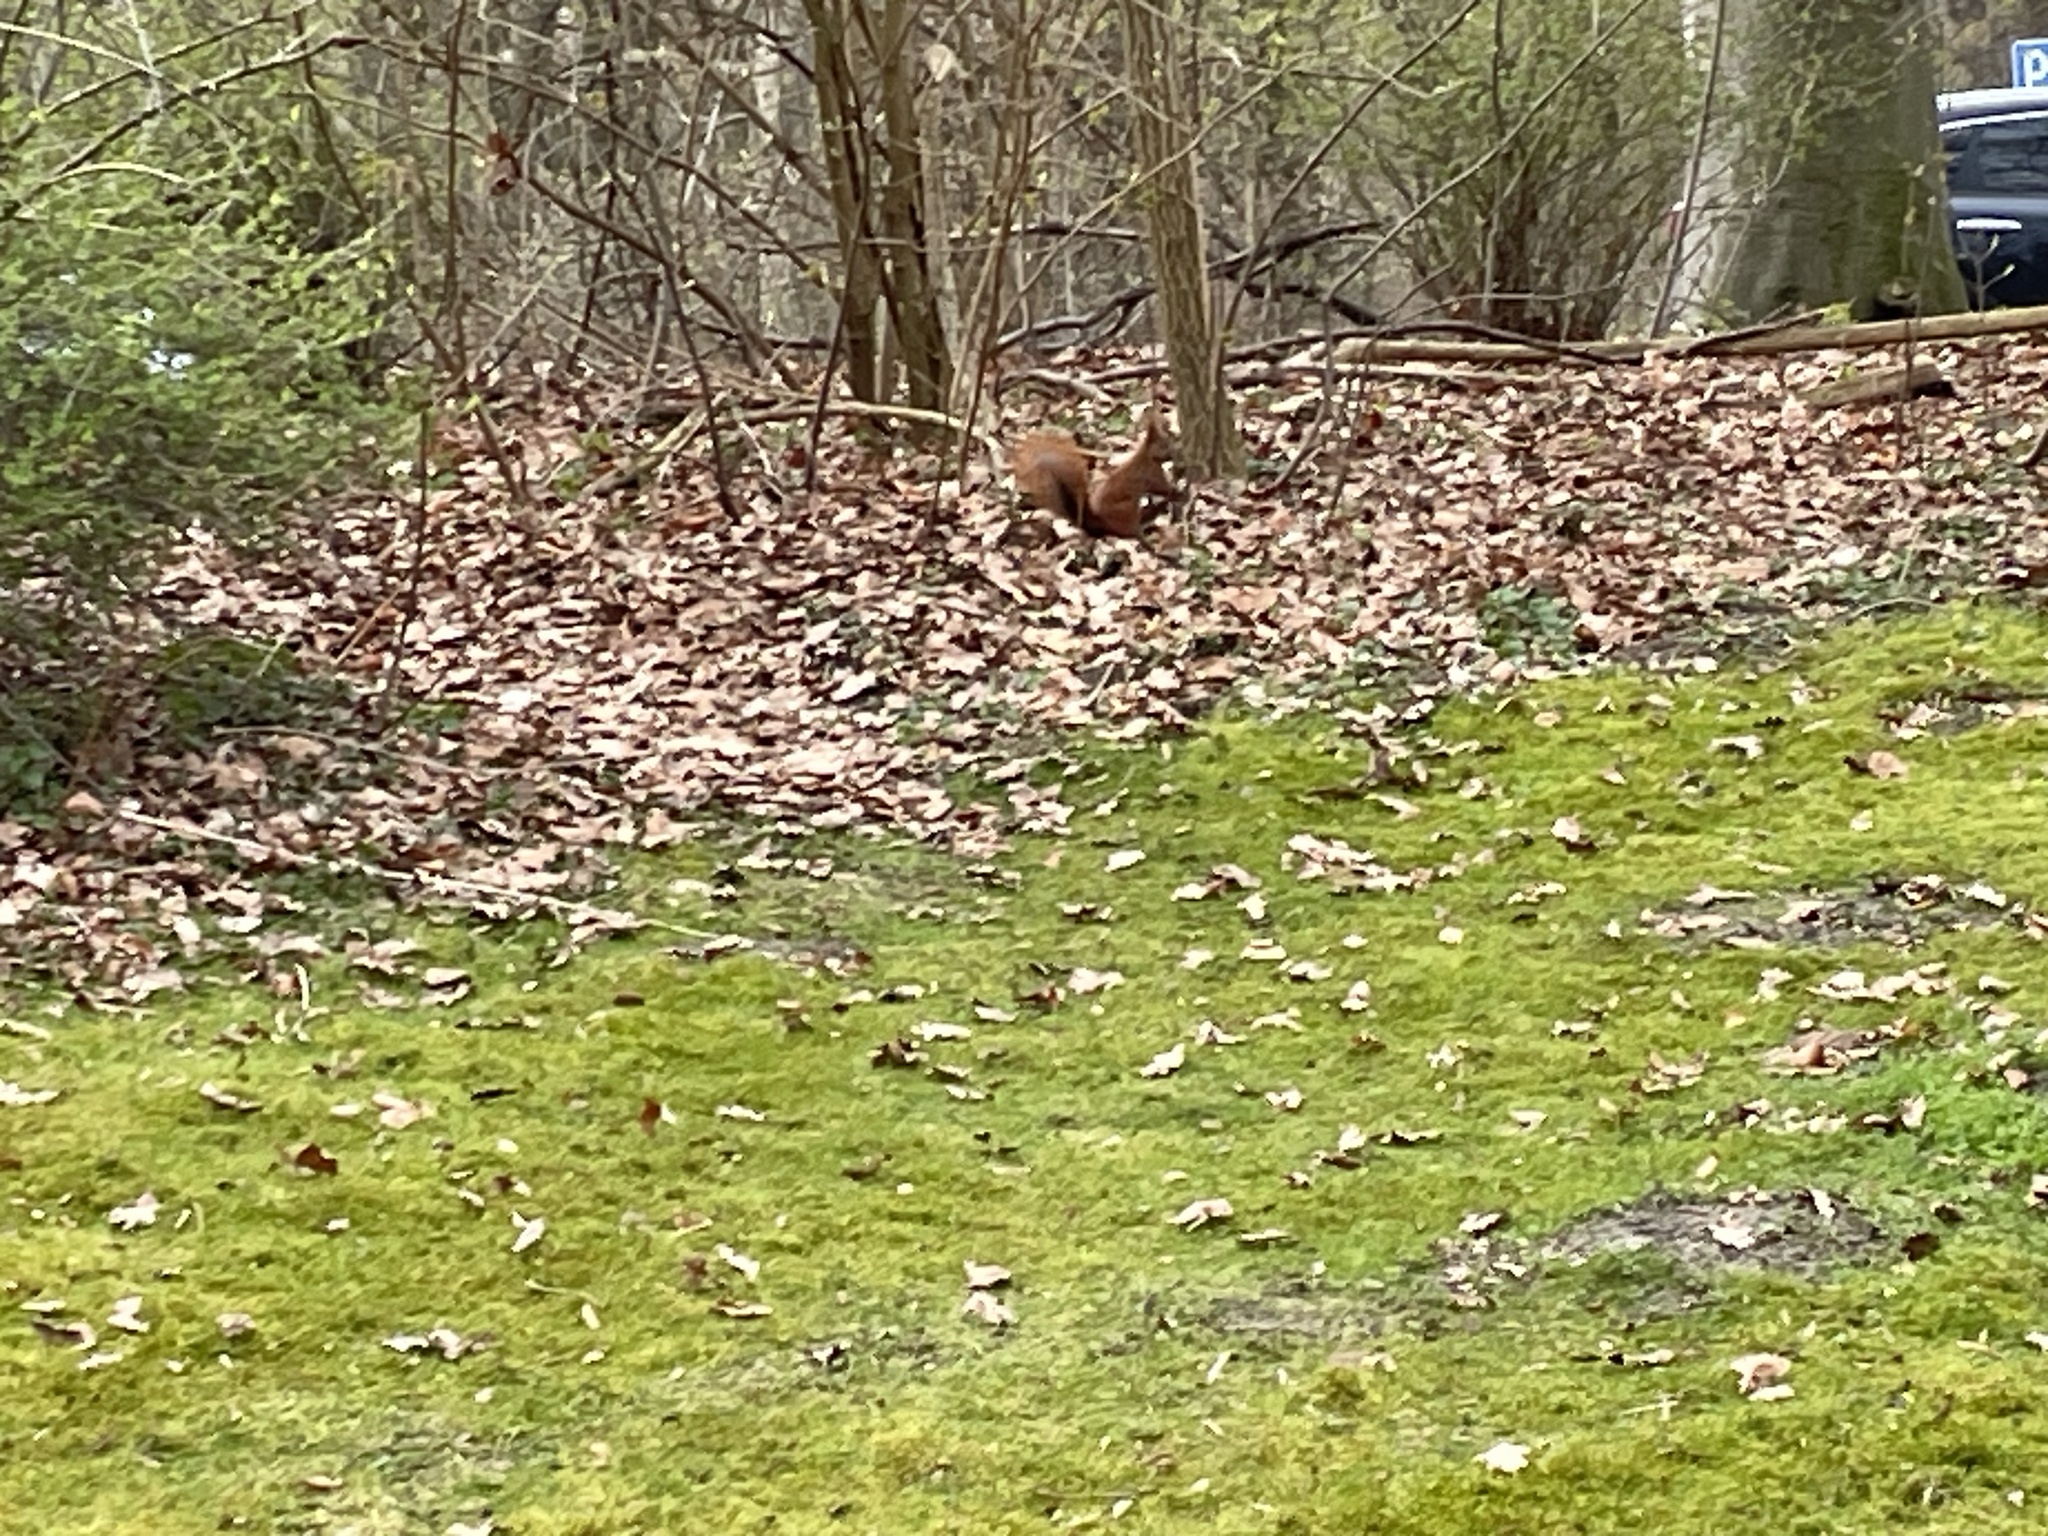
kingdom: Animalia
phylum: Chordata
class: Mammalia
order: Rodentia
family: Sciuridae
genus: Sciurus
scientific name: Sciurus vulgaris
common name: Eurasian red squirrel
